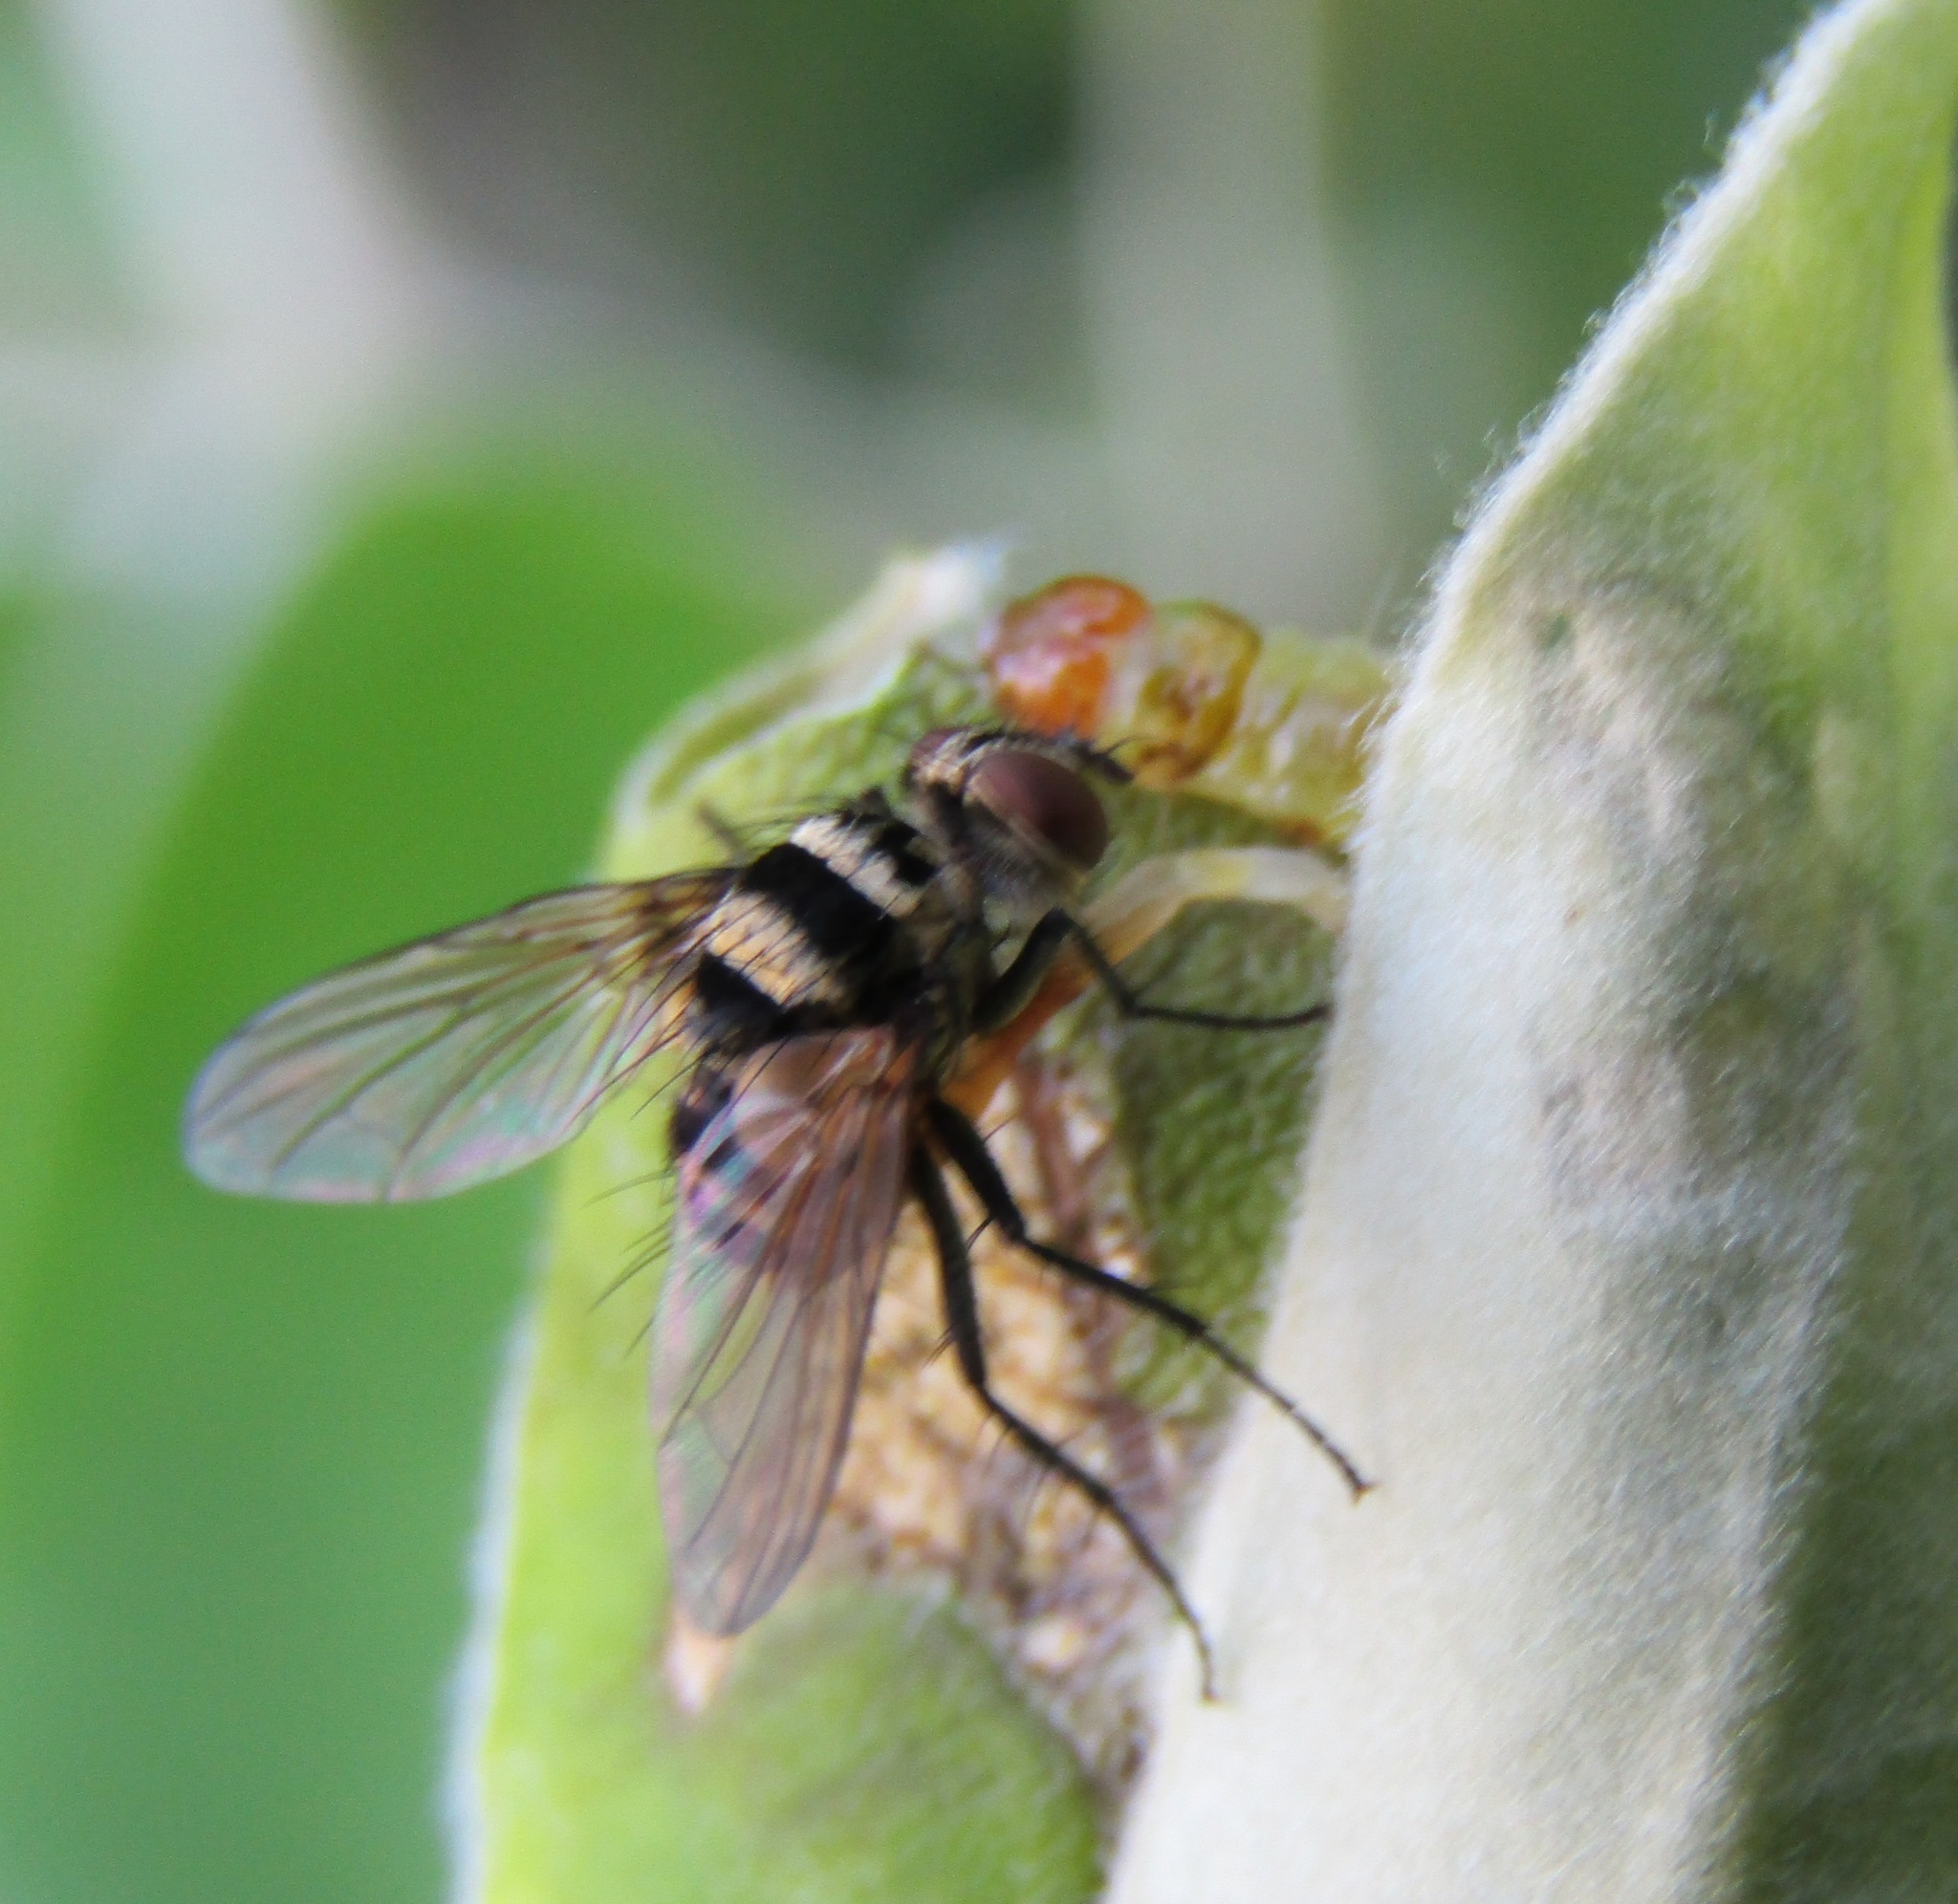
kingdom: Animalia
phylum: Arthropoda
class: Insecta
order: Diptera
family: Tachinidae
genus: Trigonospila
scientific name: Trigonospila brevifacies
